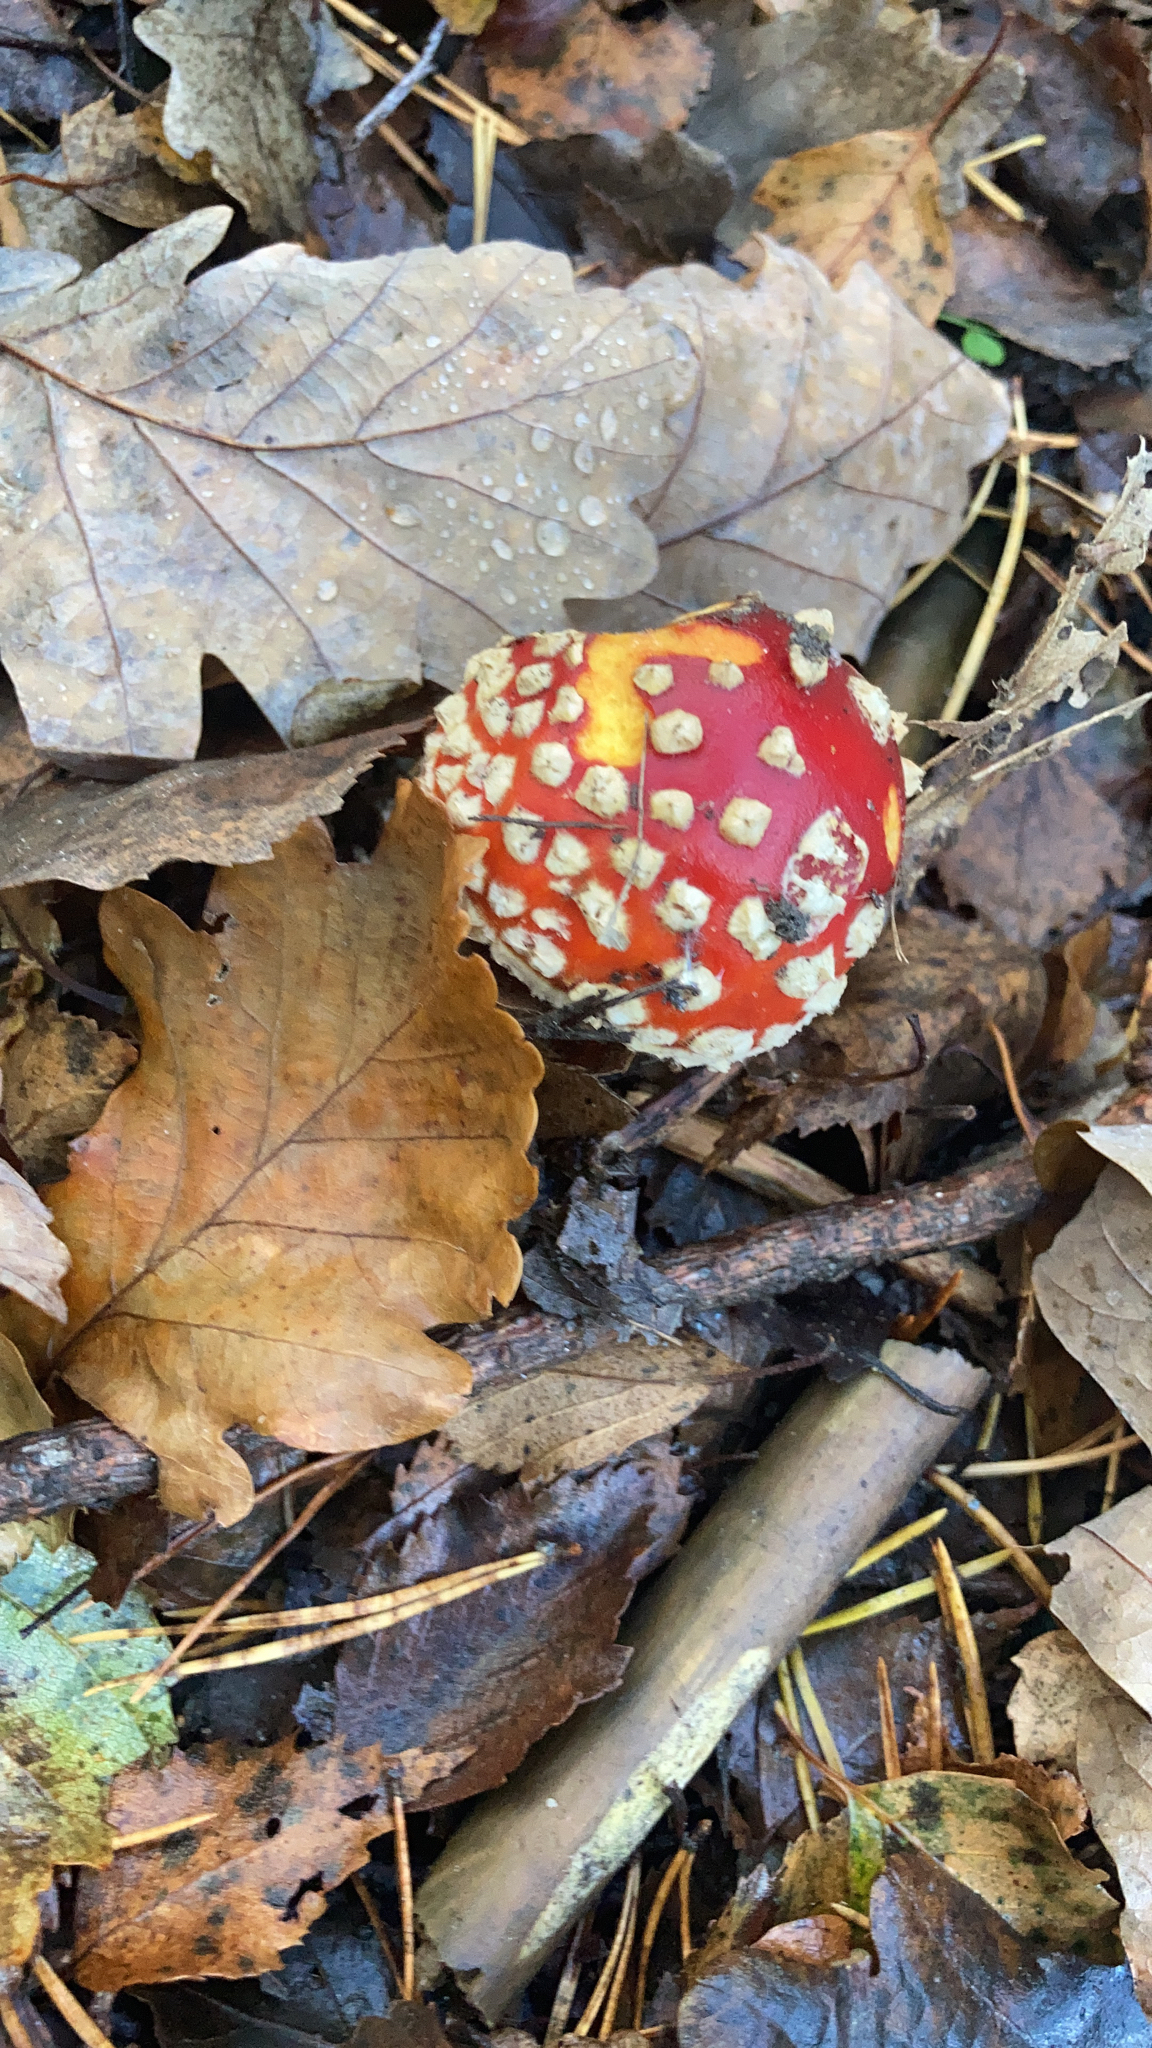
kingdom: Fungi
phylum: Basidiomycota
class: Agaricomycetes
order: Agaricales
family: Amanitaceae
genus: Amanita
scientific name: Amanita muscaria
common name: Fly agaric
